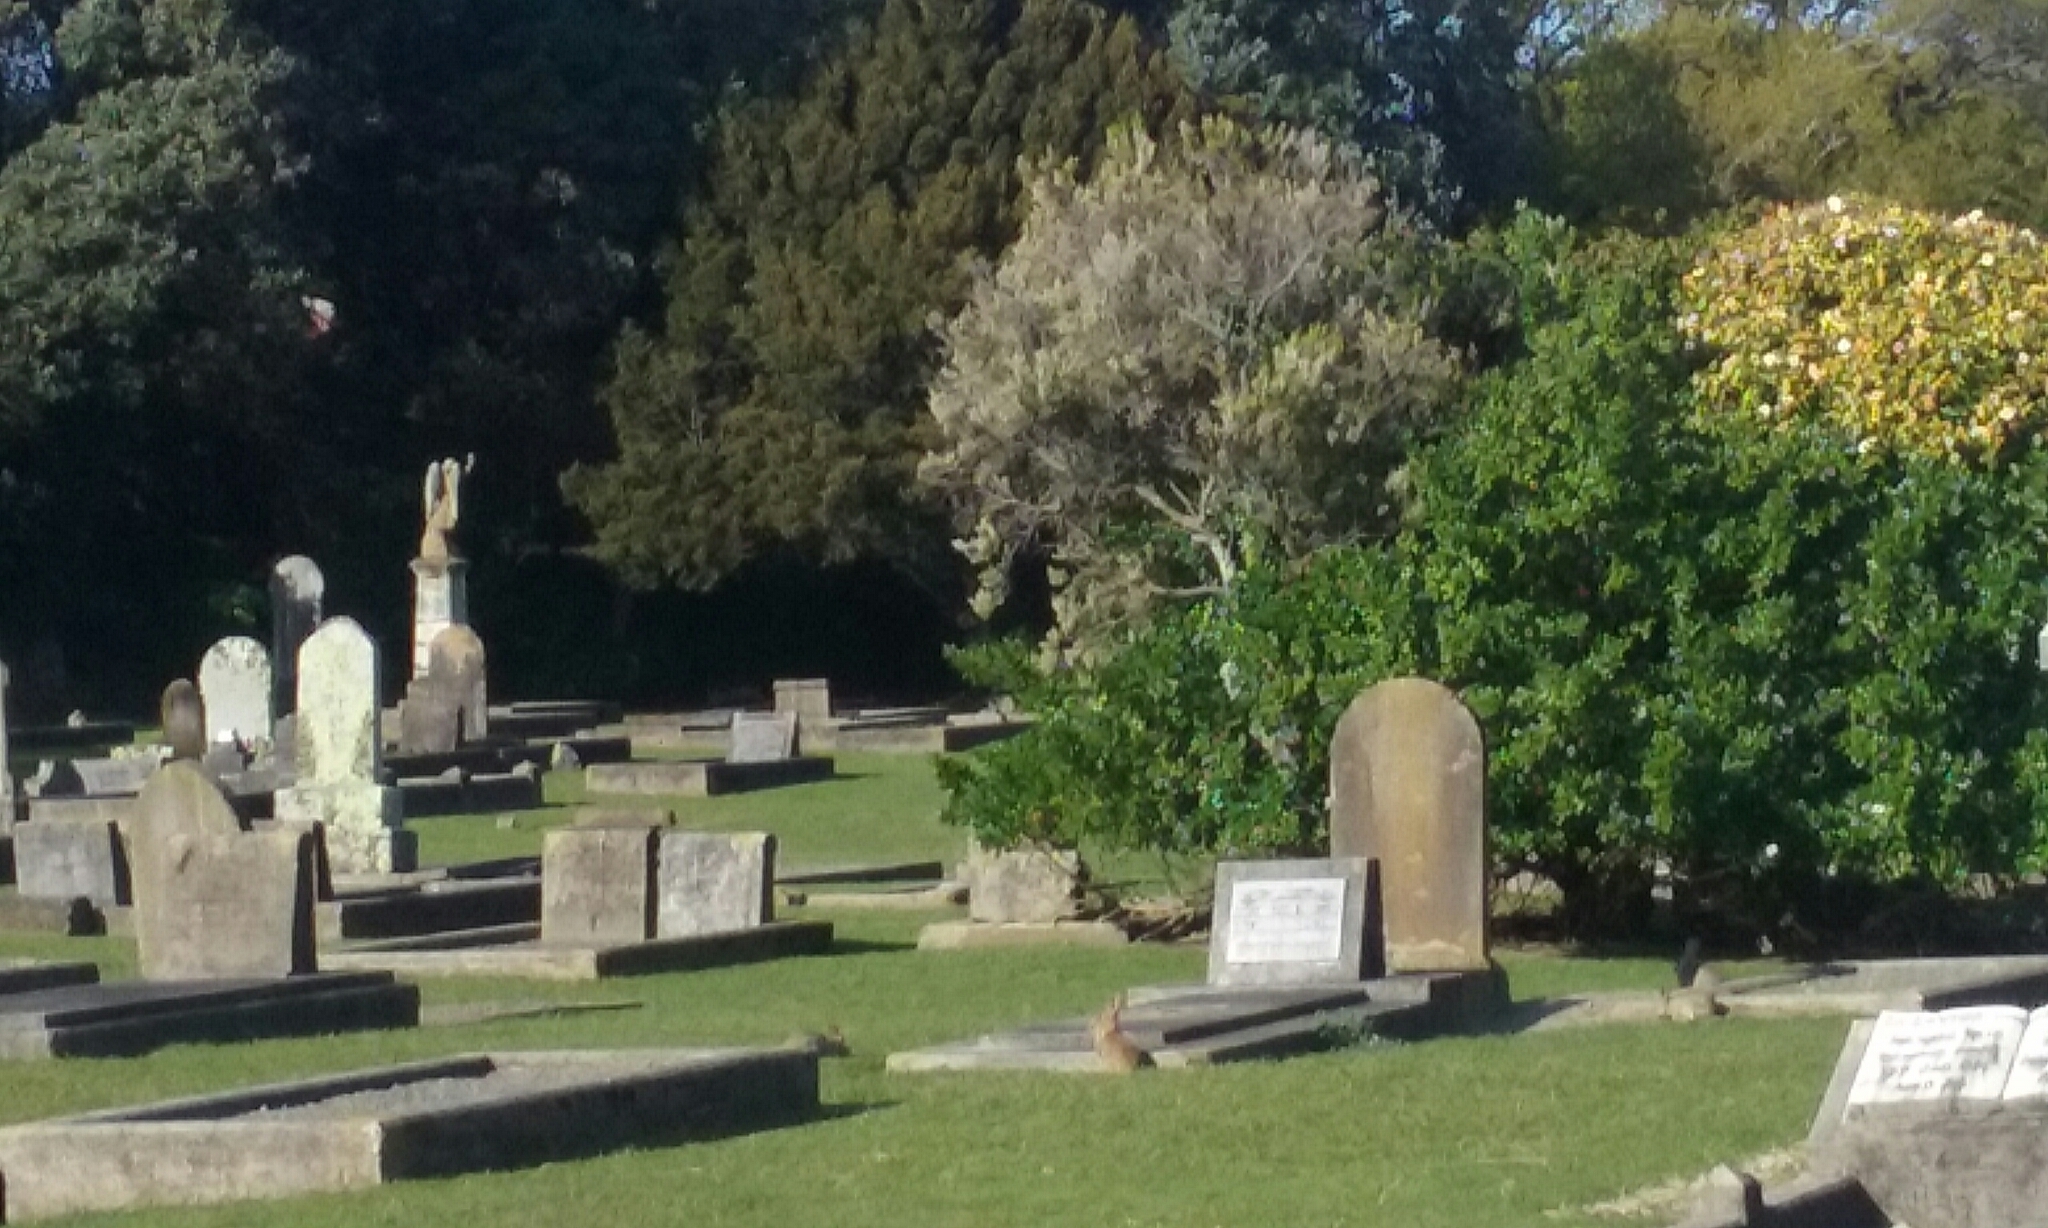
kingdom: Animalia
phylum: Chordata
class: Mammalia
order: Lagomorpha
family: Leporidae
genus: Oryctolagus
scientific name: Oryctolagus cuniculus
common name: European rabbit
